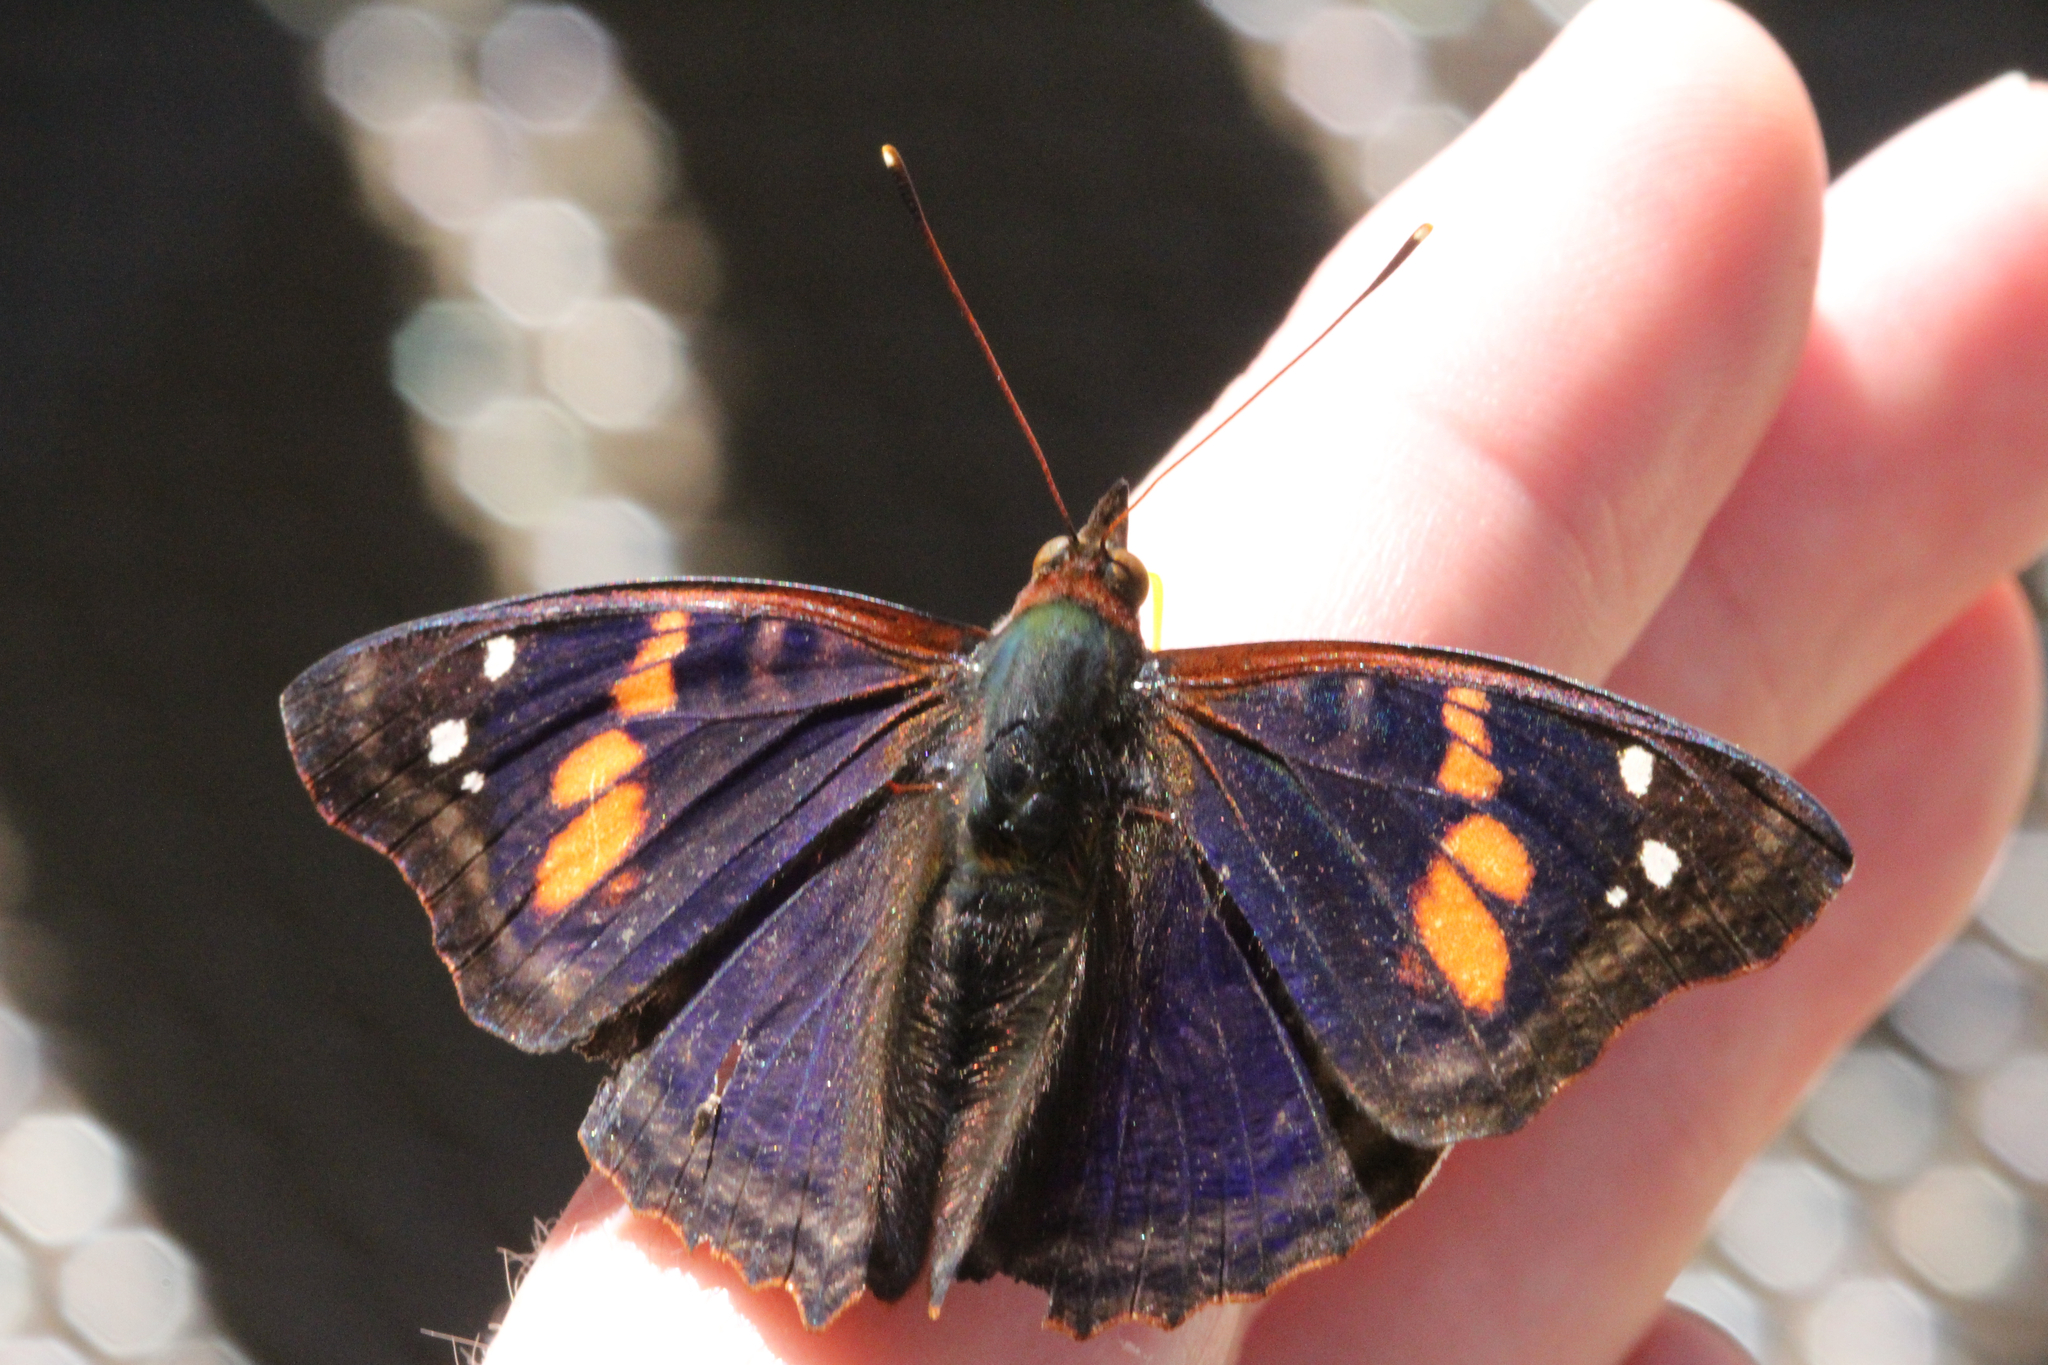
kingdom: Animalia
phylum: Arthropoda
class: Insecta
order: Lepidoptera
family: Nymphalidae
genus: Doxocopa
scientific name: Doxocopa agathina
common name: Agathina emperor
